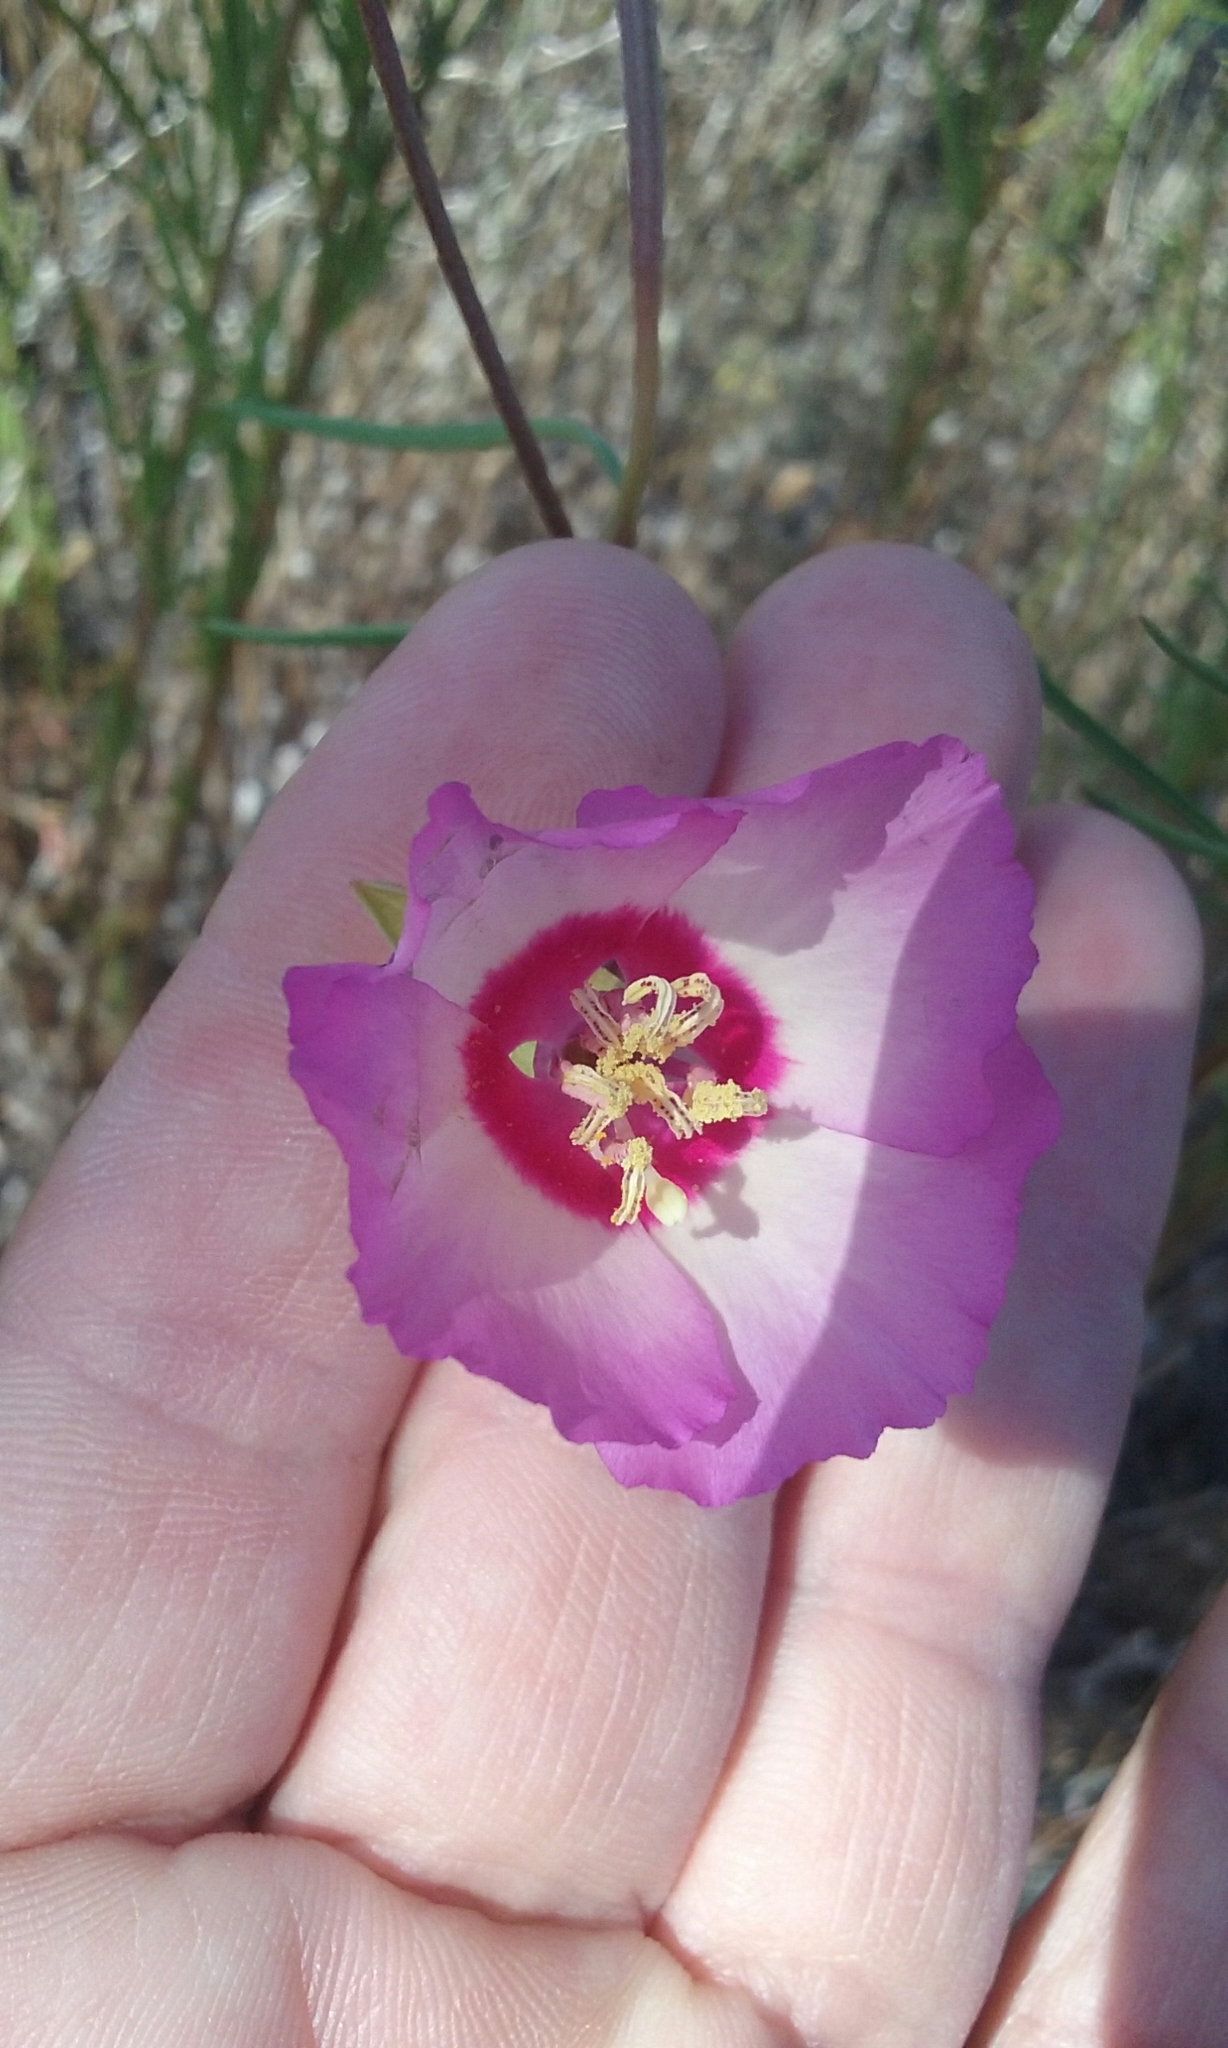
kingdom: Plantae
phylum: Tracheophyta
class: Magnoliopsida
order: Myrtales
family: Onagraceae
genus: Clarkia
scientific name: Clarkia gracilis
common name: Graceful clarkia
